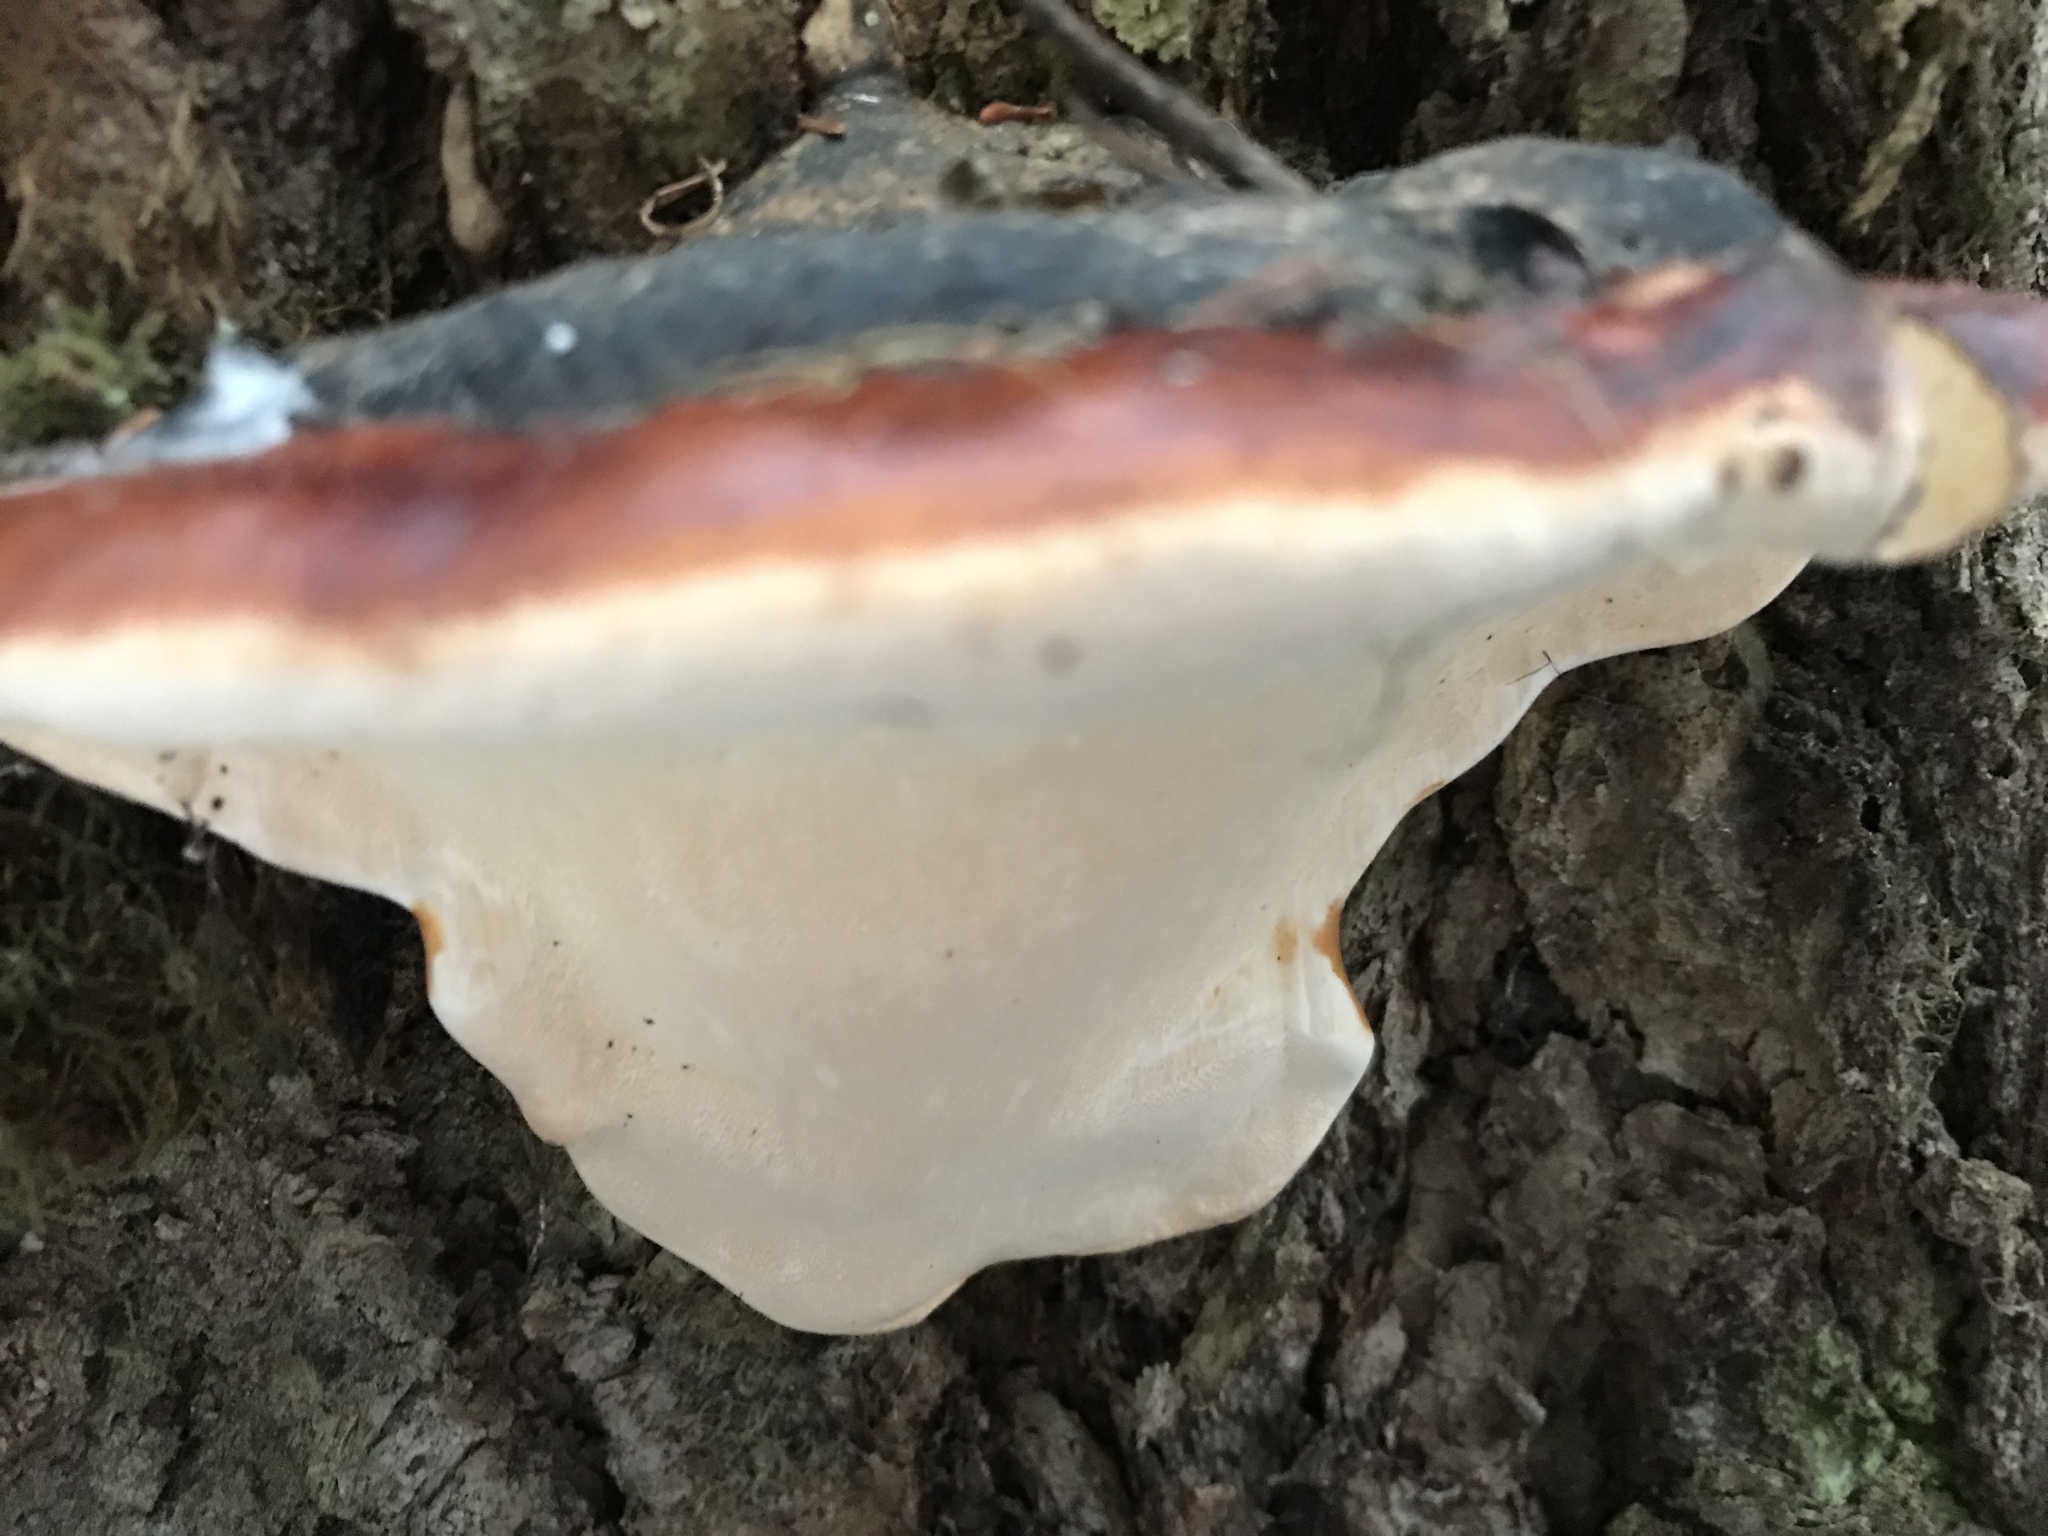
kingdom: Fungi
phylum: Basidiomycota
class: Agaricomycetes
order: Polyporales
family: Fomitopsidaceae
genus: Fomitopsis
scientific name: Fomitopsis mounceae
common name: Northern red belt
